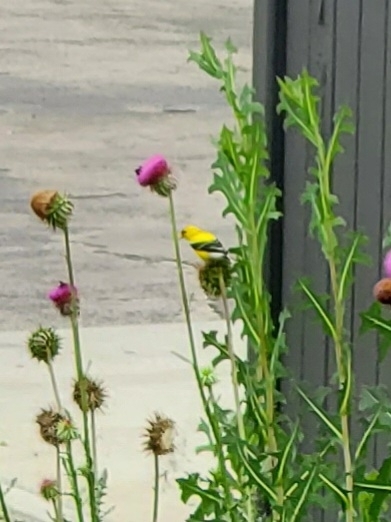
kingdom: Animalia
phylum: Chordata
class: Aves
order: Passeriformes
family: Fringillidae
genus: Spinus
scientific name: Spinus tristis
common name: American goldfinch
